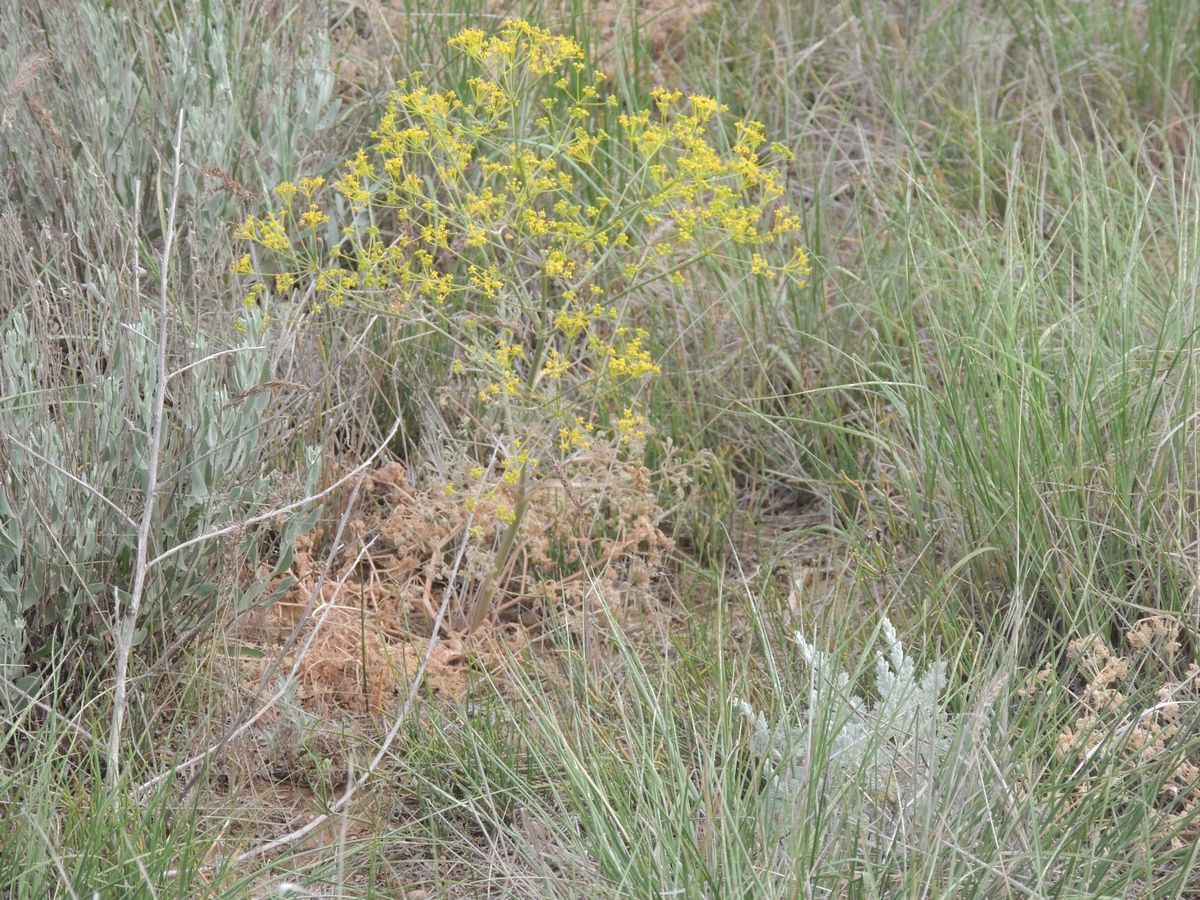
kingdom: Plantae
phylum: Tracheophyta
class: Magnoliopsida
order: Apiales
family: Apiaceae
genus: Prangos
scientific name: Prangos odontalgica
